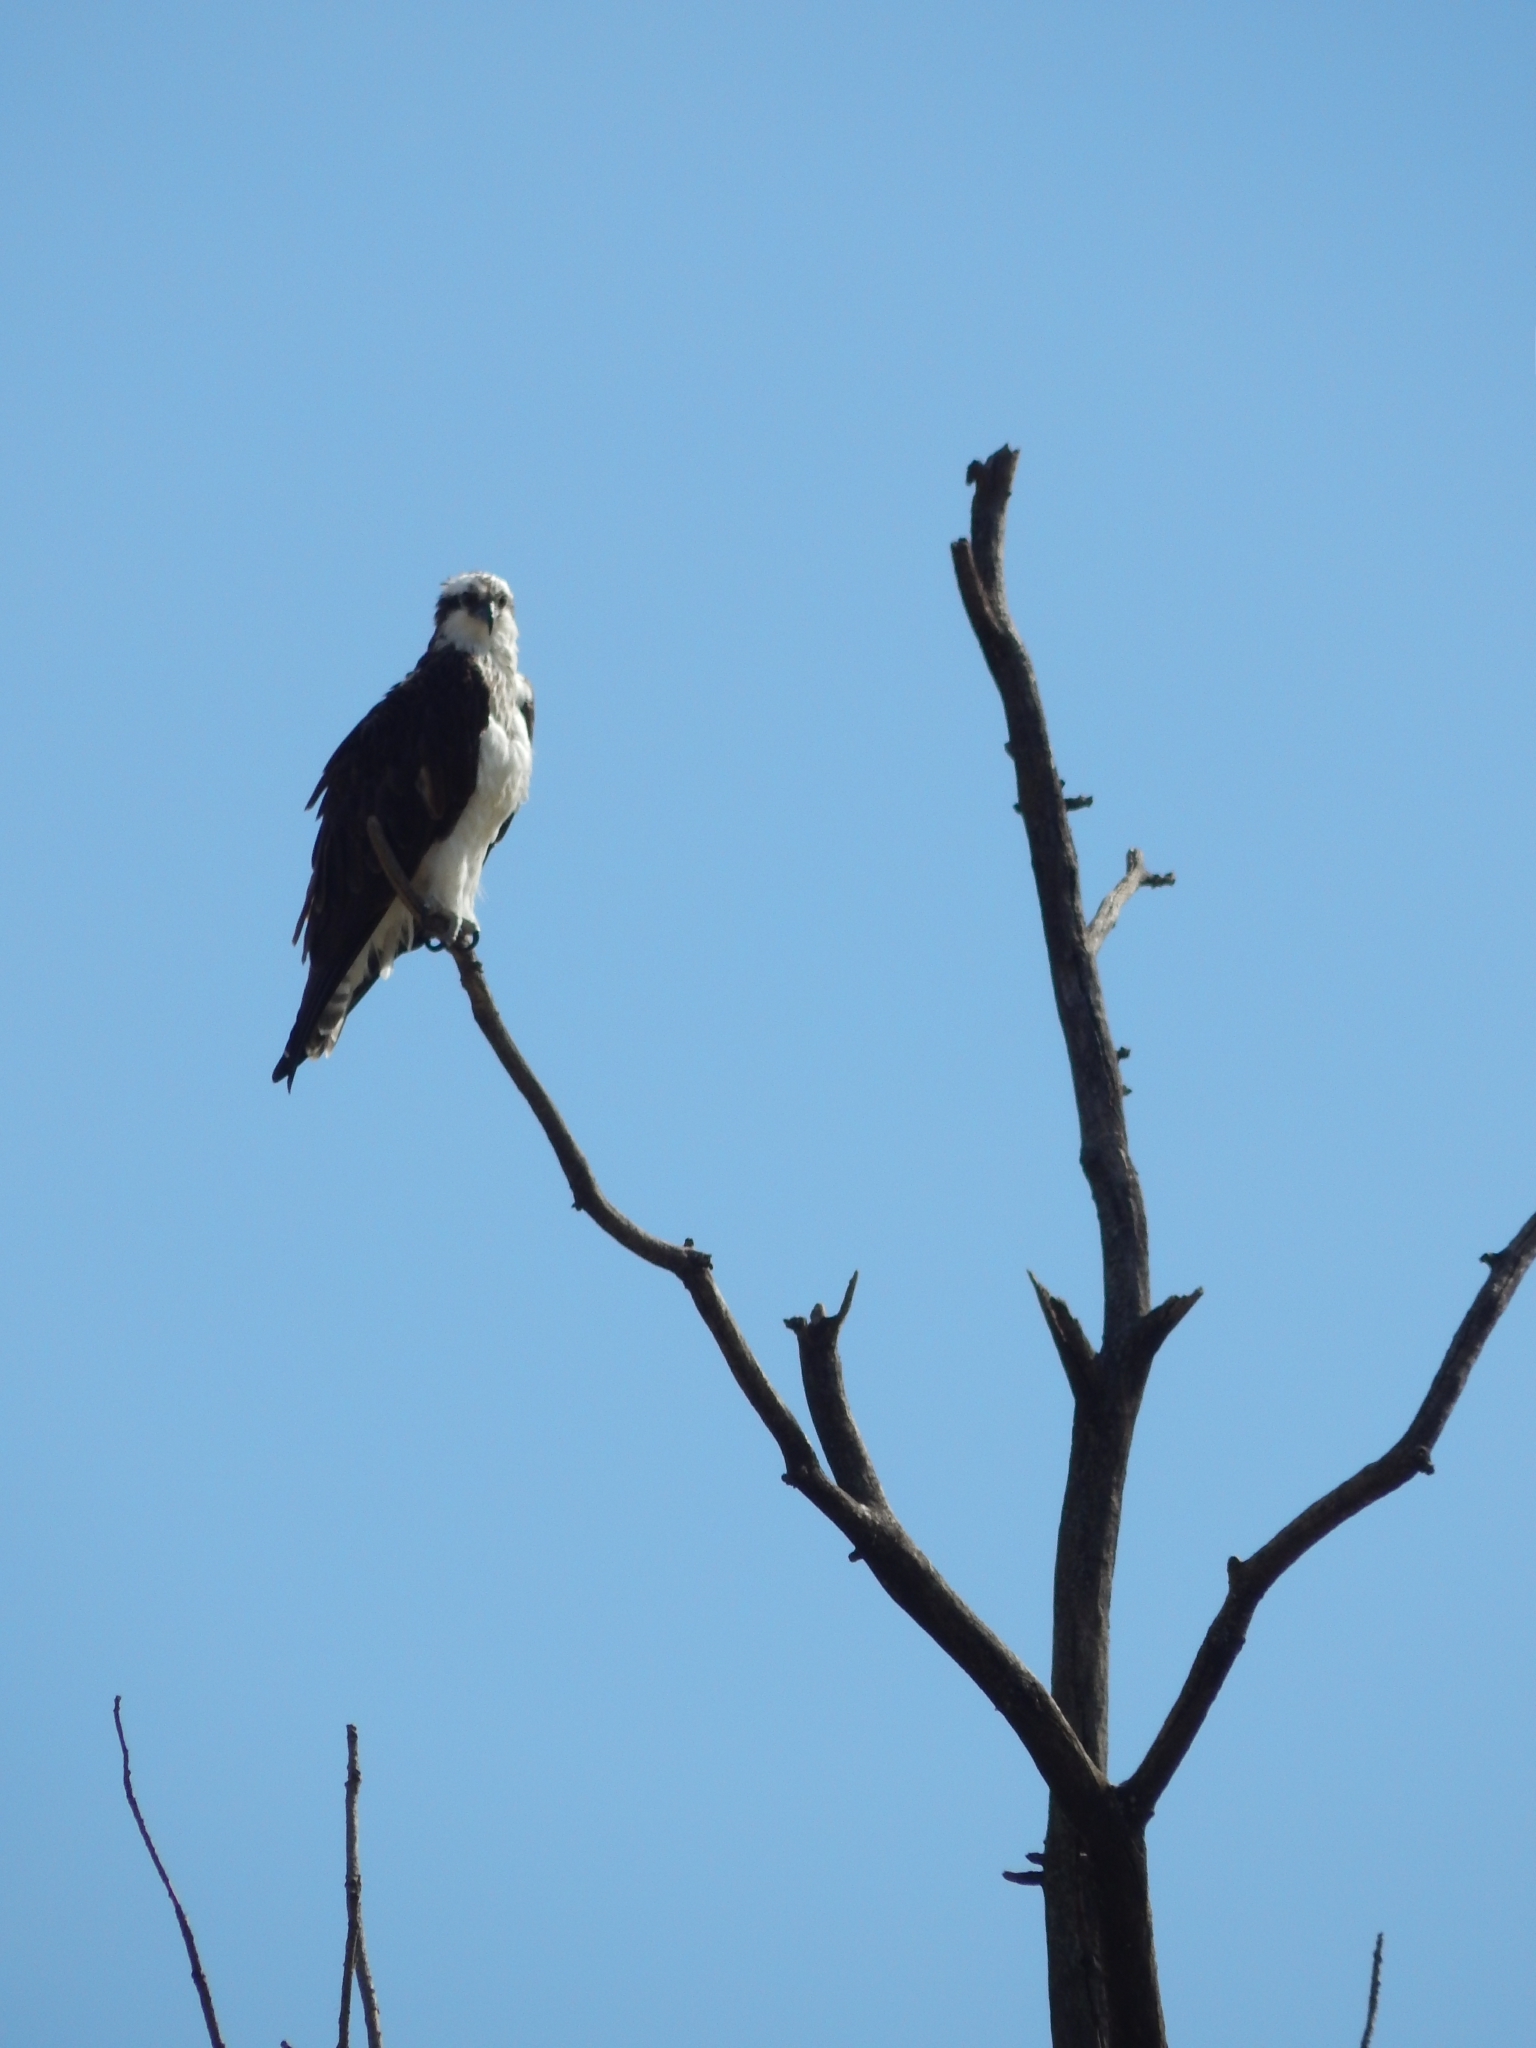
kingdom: Animalia
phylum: Chordata
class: Aves
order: Accipitriformes
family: Pandionidae
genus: Pandion
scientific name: Pandion haliaetus
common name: Osprey
